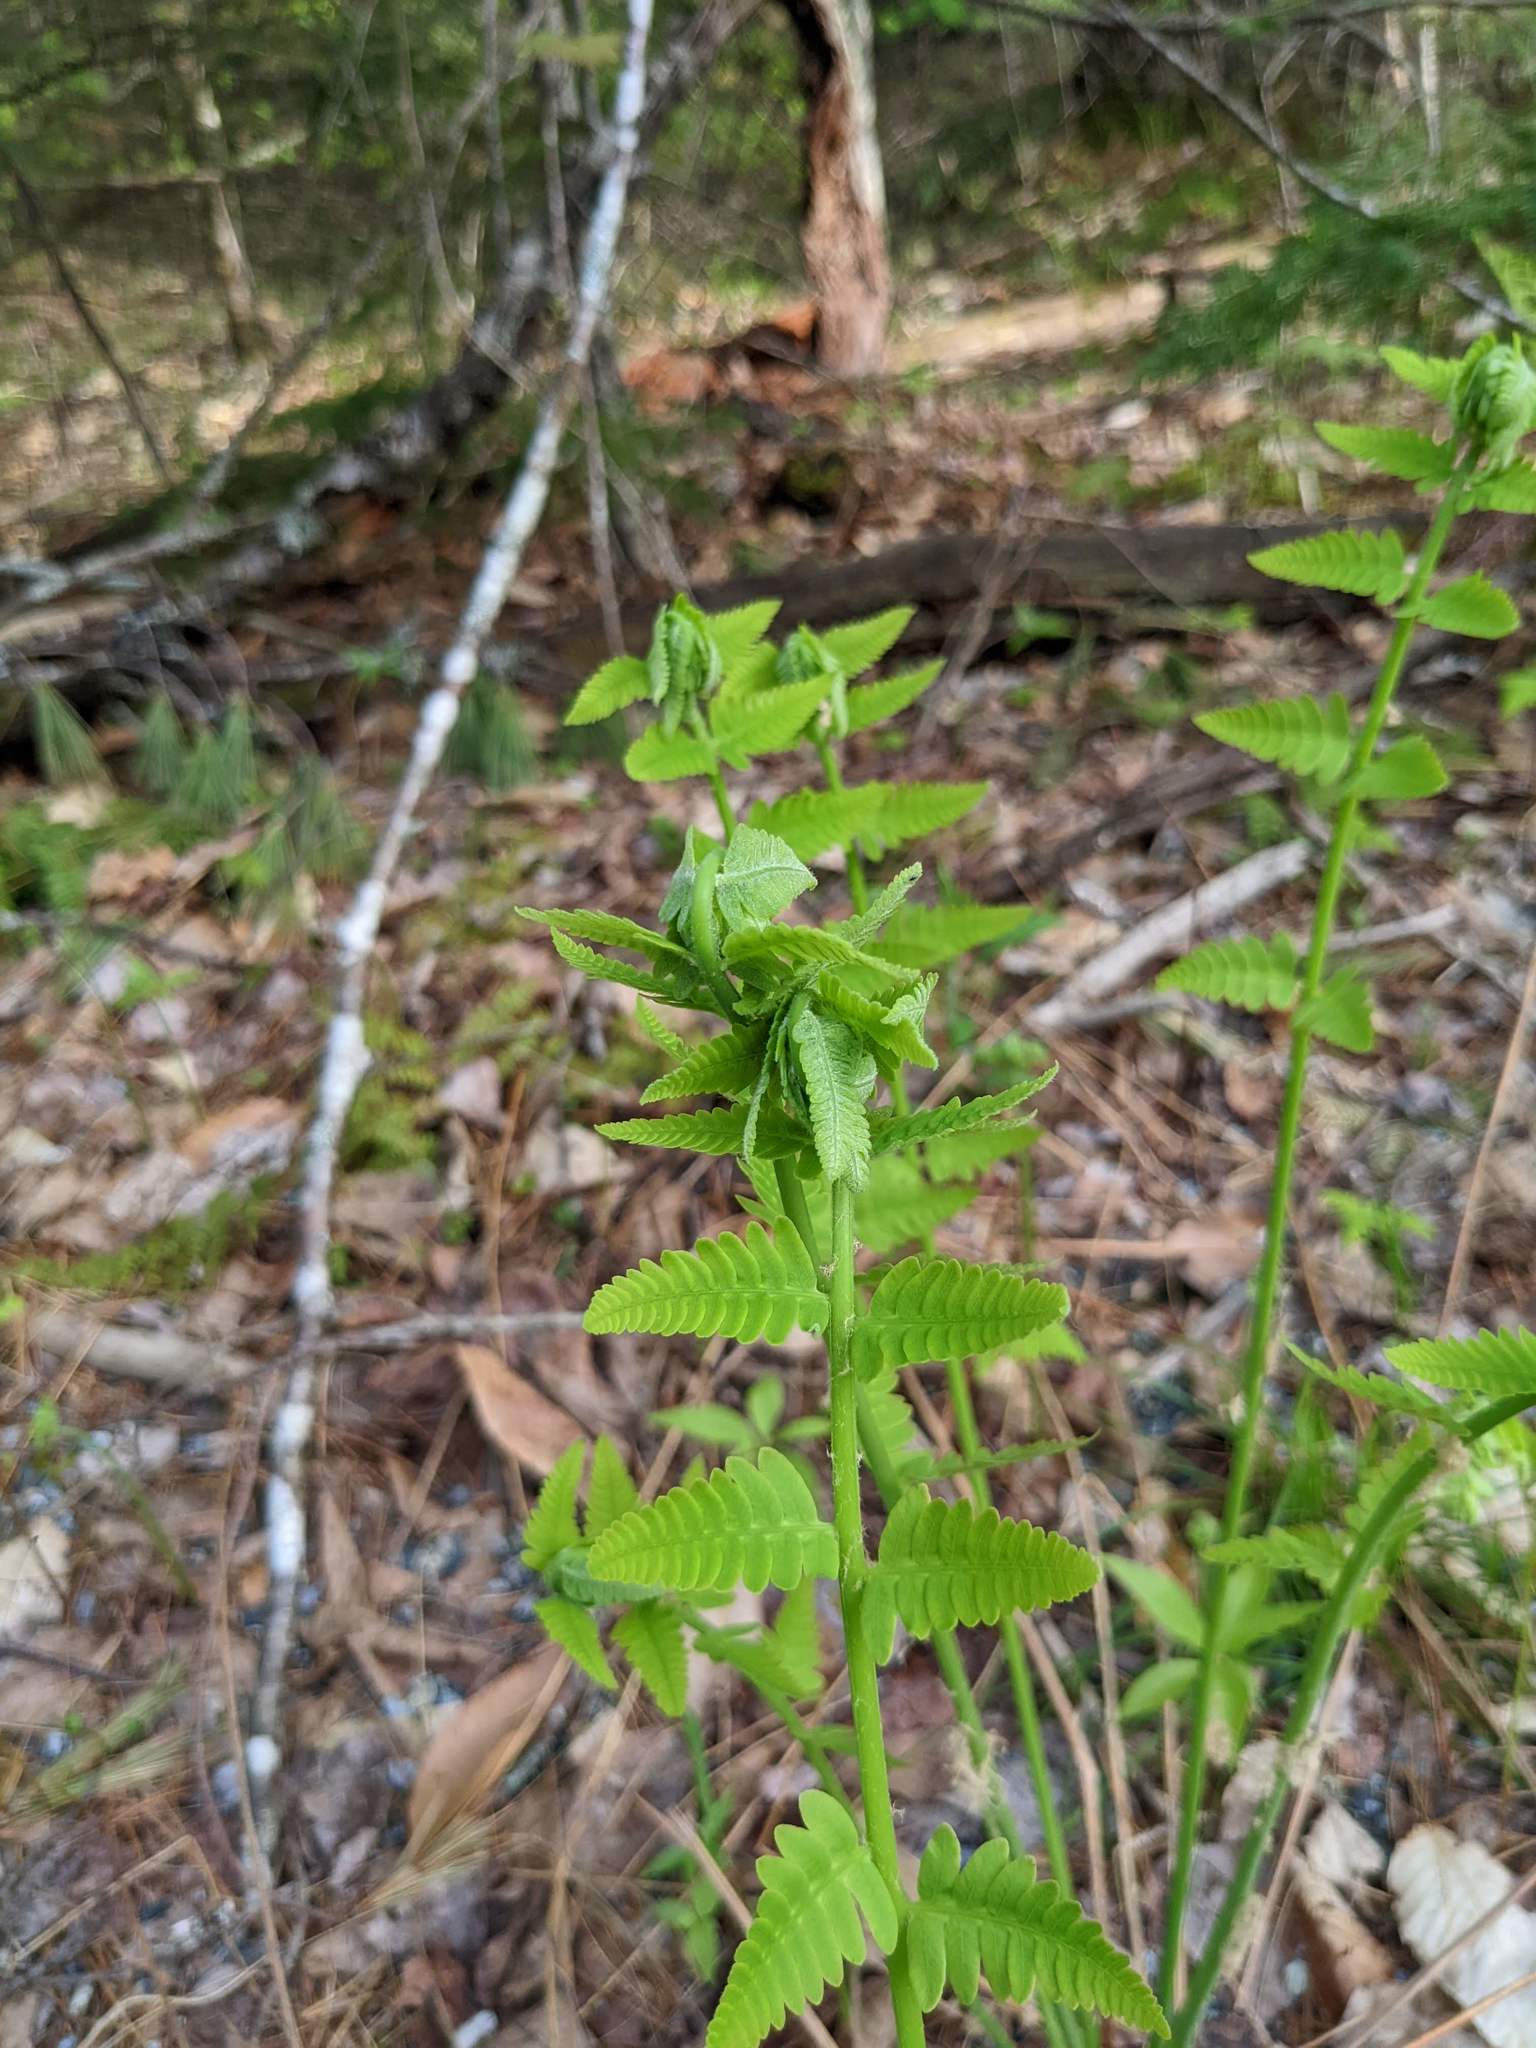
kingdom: Plantae
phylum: Tracheophyta
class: Polypodiopsida
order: Osmundales
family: Osmundaceae
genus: Claytosmunda
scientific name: Claytosmunda claytoniana
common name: Clayton's fern
